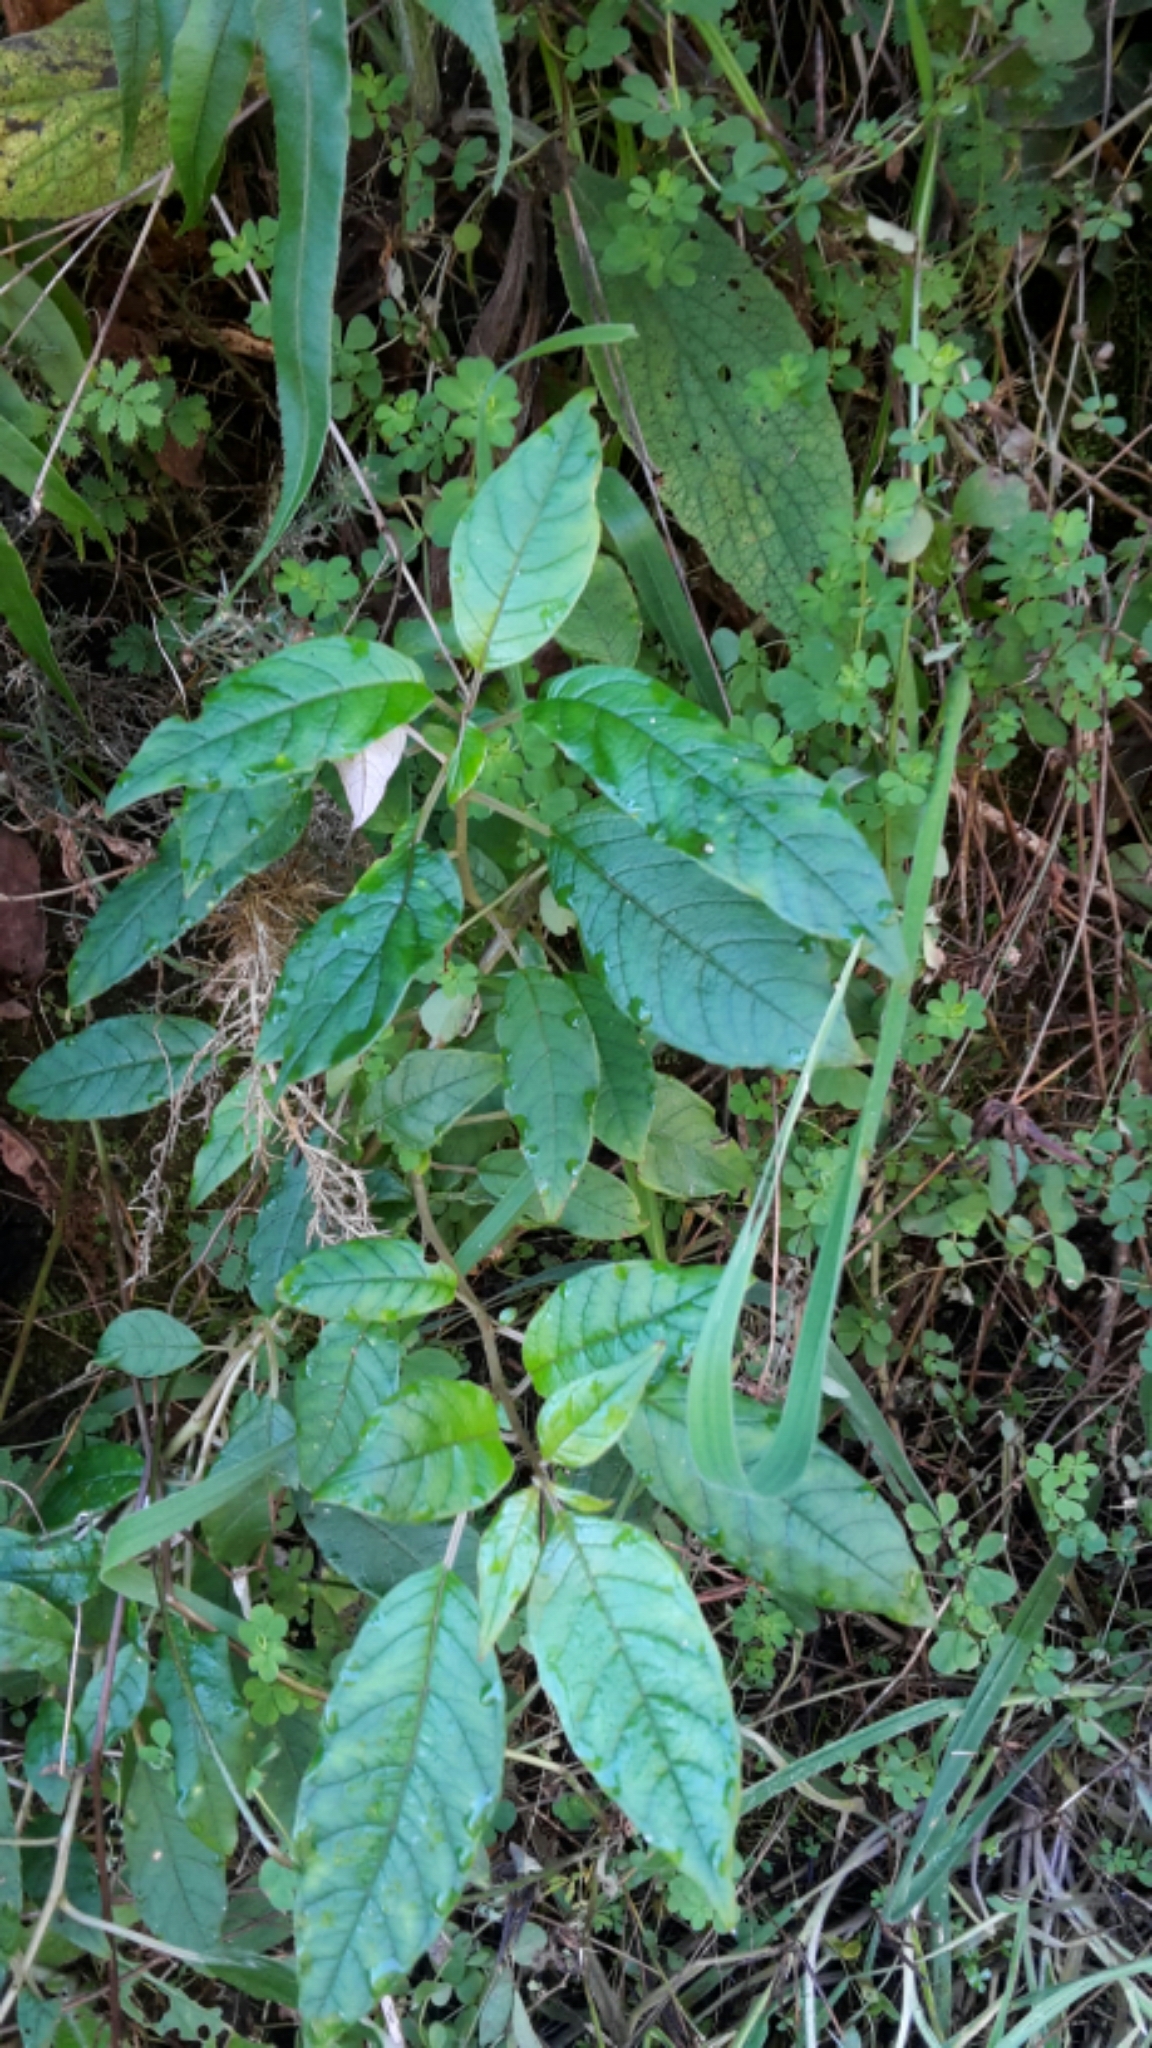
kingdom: Plantae
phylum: Tracheophyta
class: Magnoliopsida
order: Myrtales
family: Onagraceae
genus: Fuchsia
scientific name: Fuchsia excorticata
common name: Tree fuchsia
